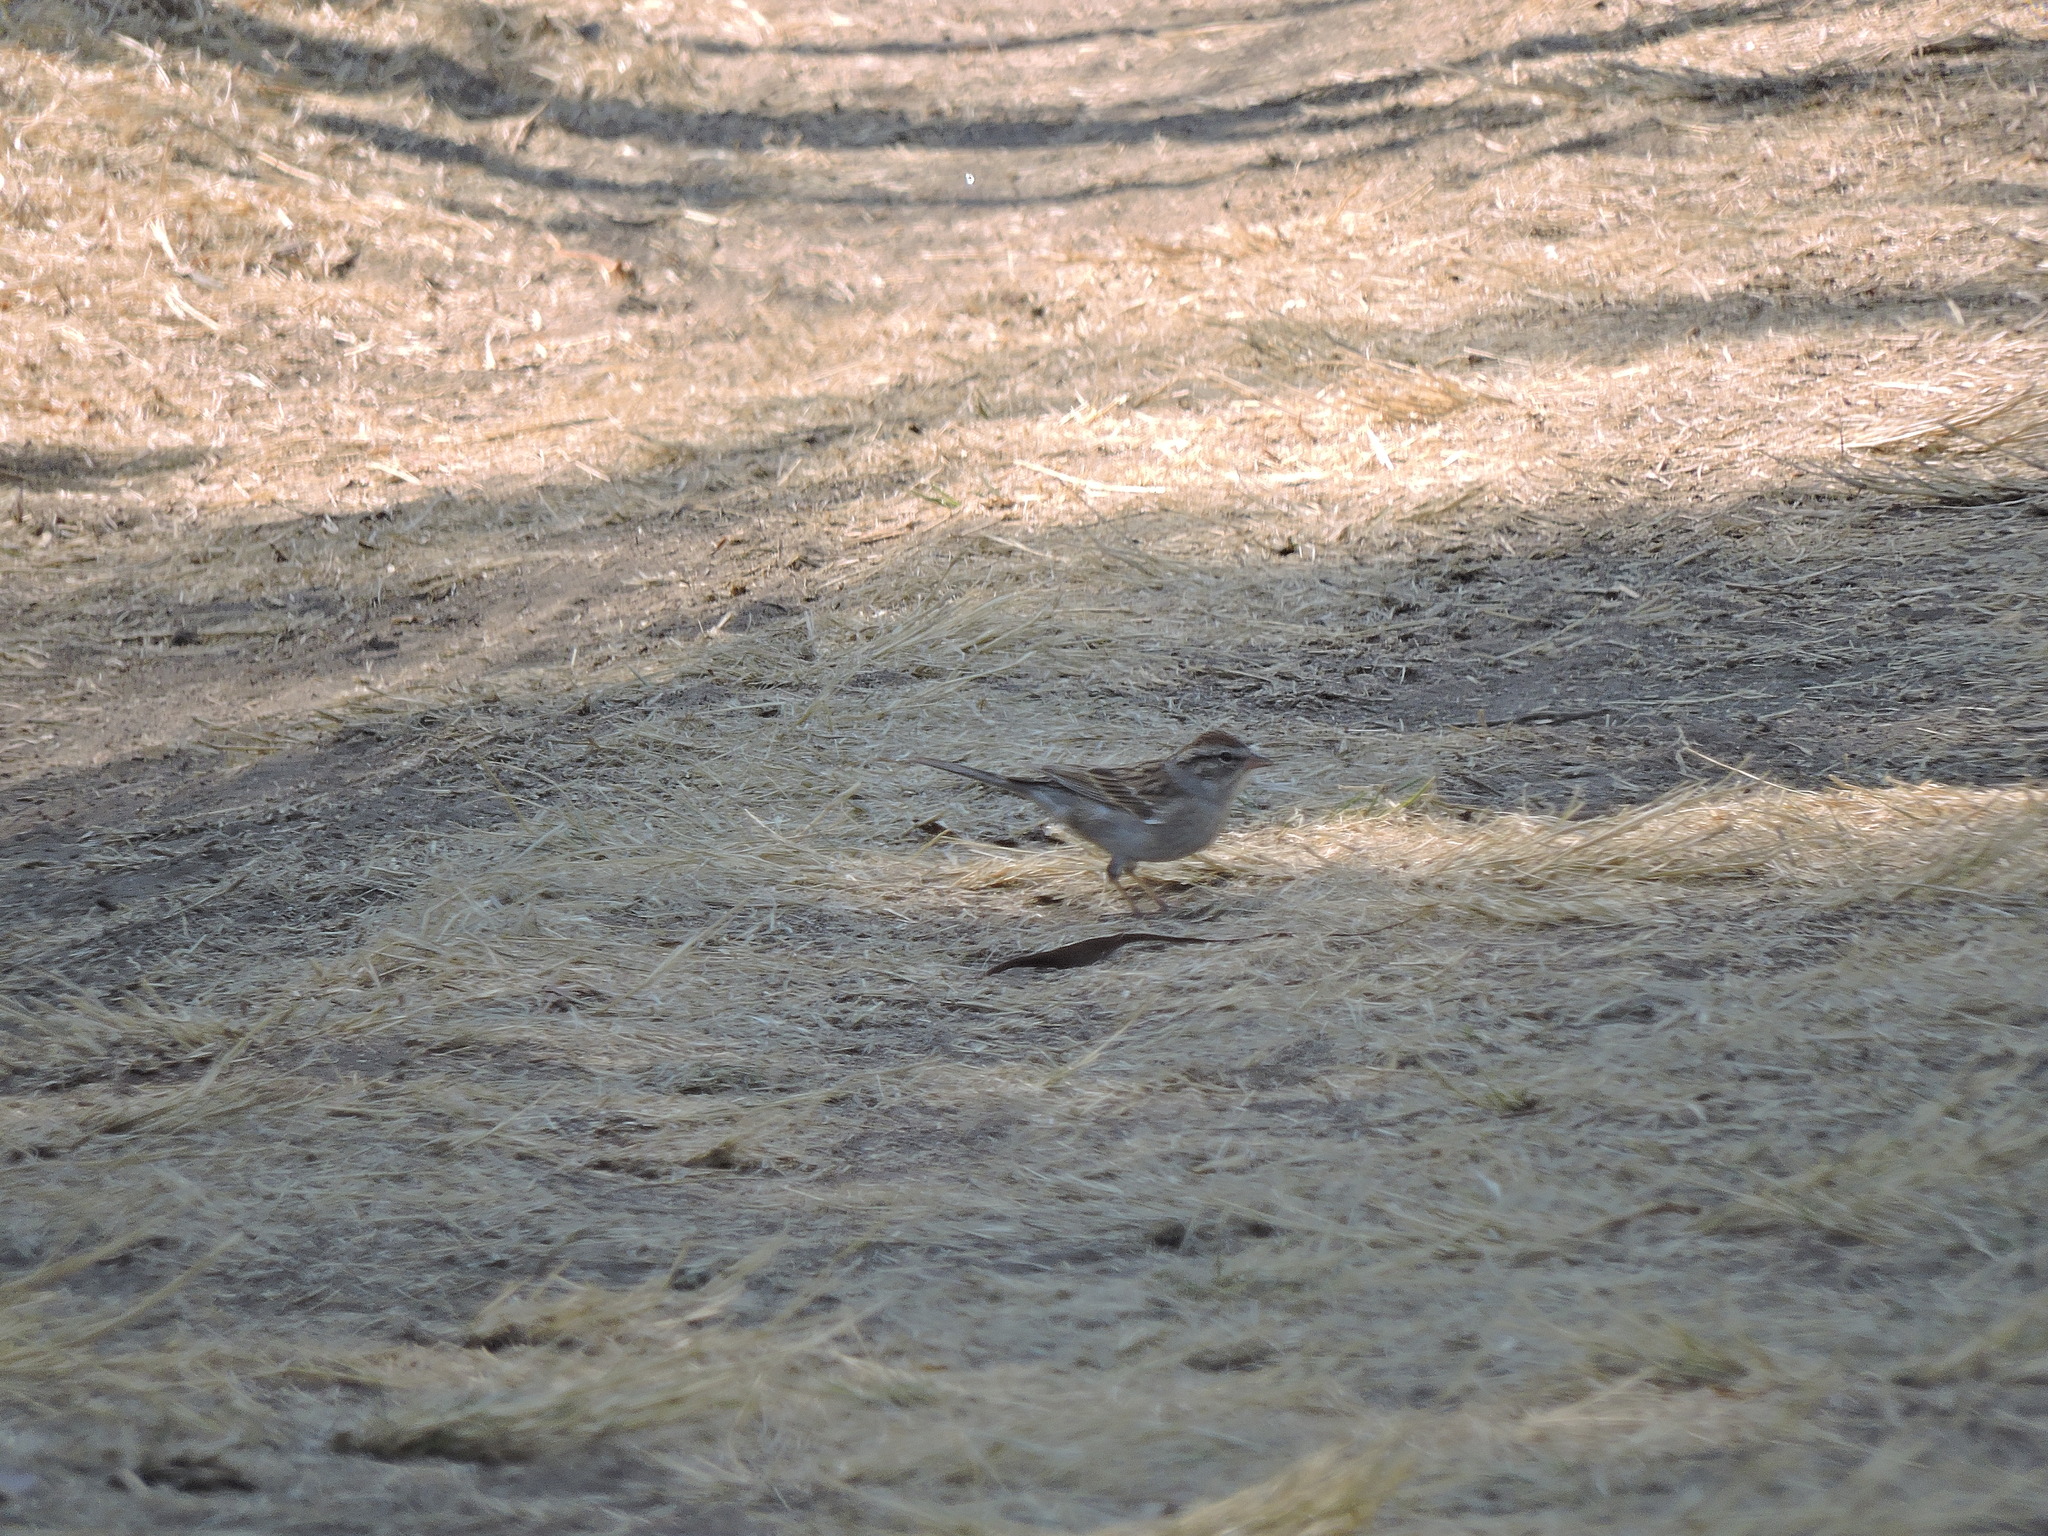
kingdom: Animalia
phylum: Chordata
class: Aves
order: Passeriformes
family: Passerellidae
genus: Spizella
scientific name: Spizella passerina
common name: Chipping sparrow
